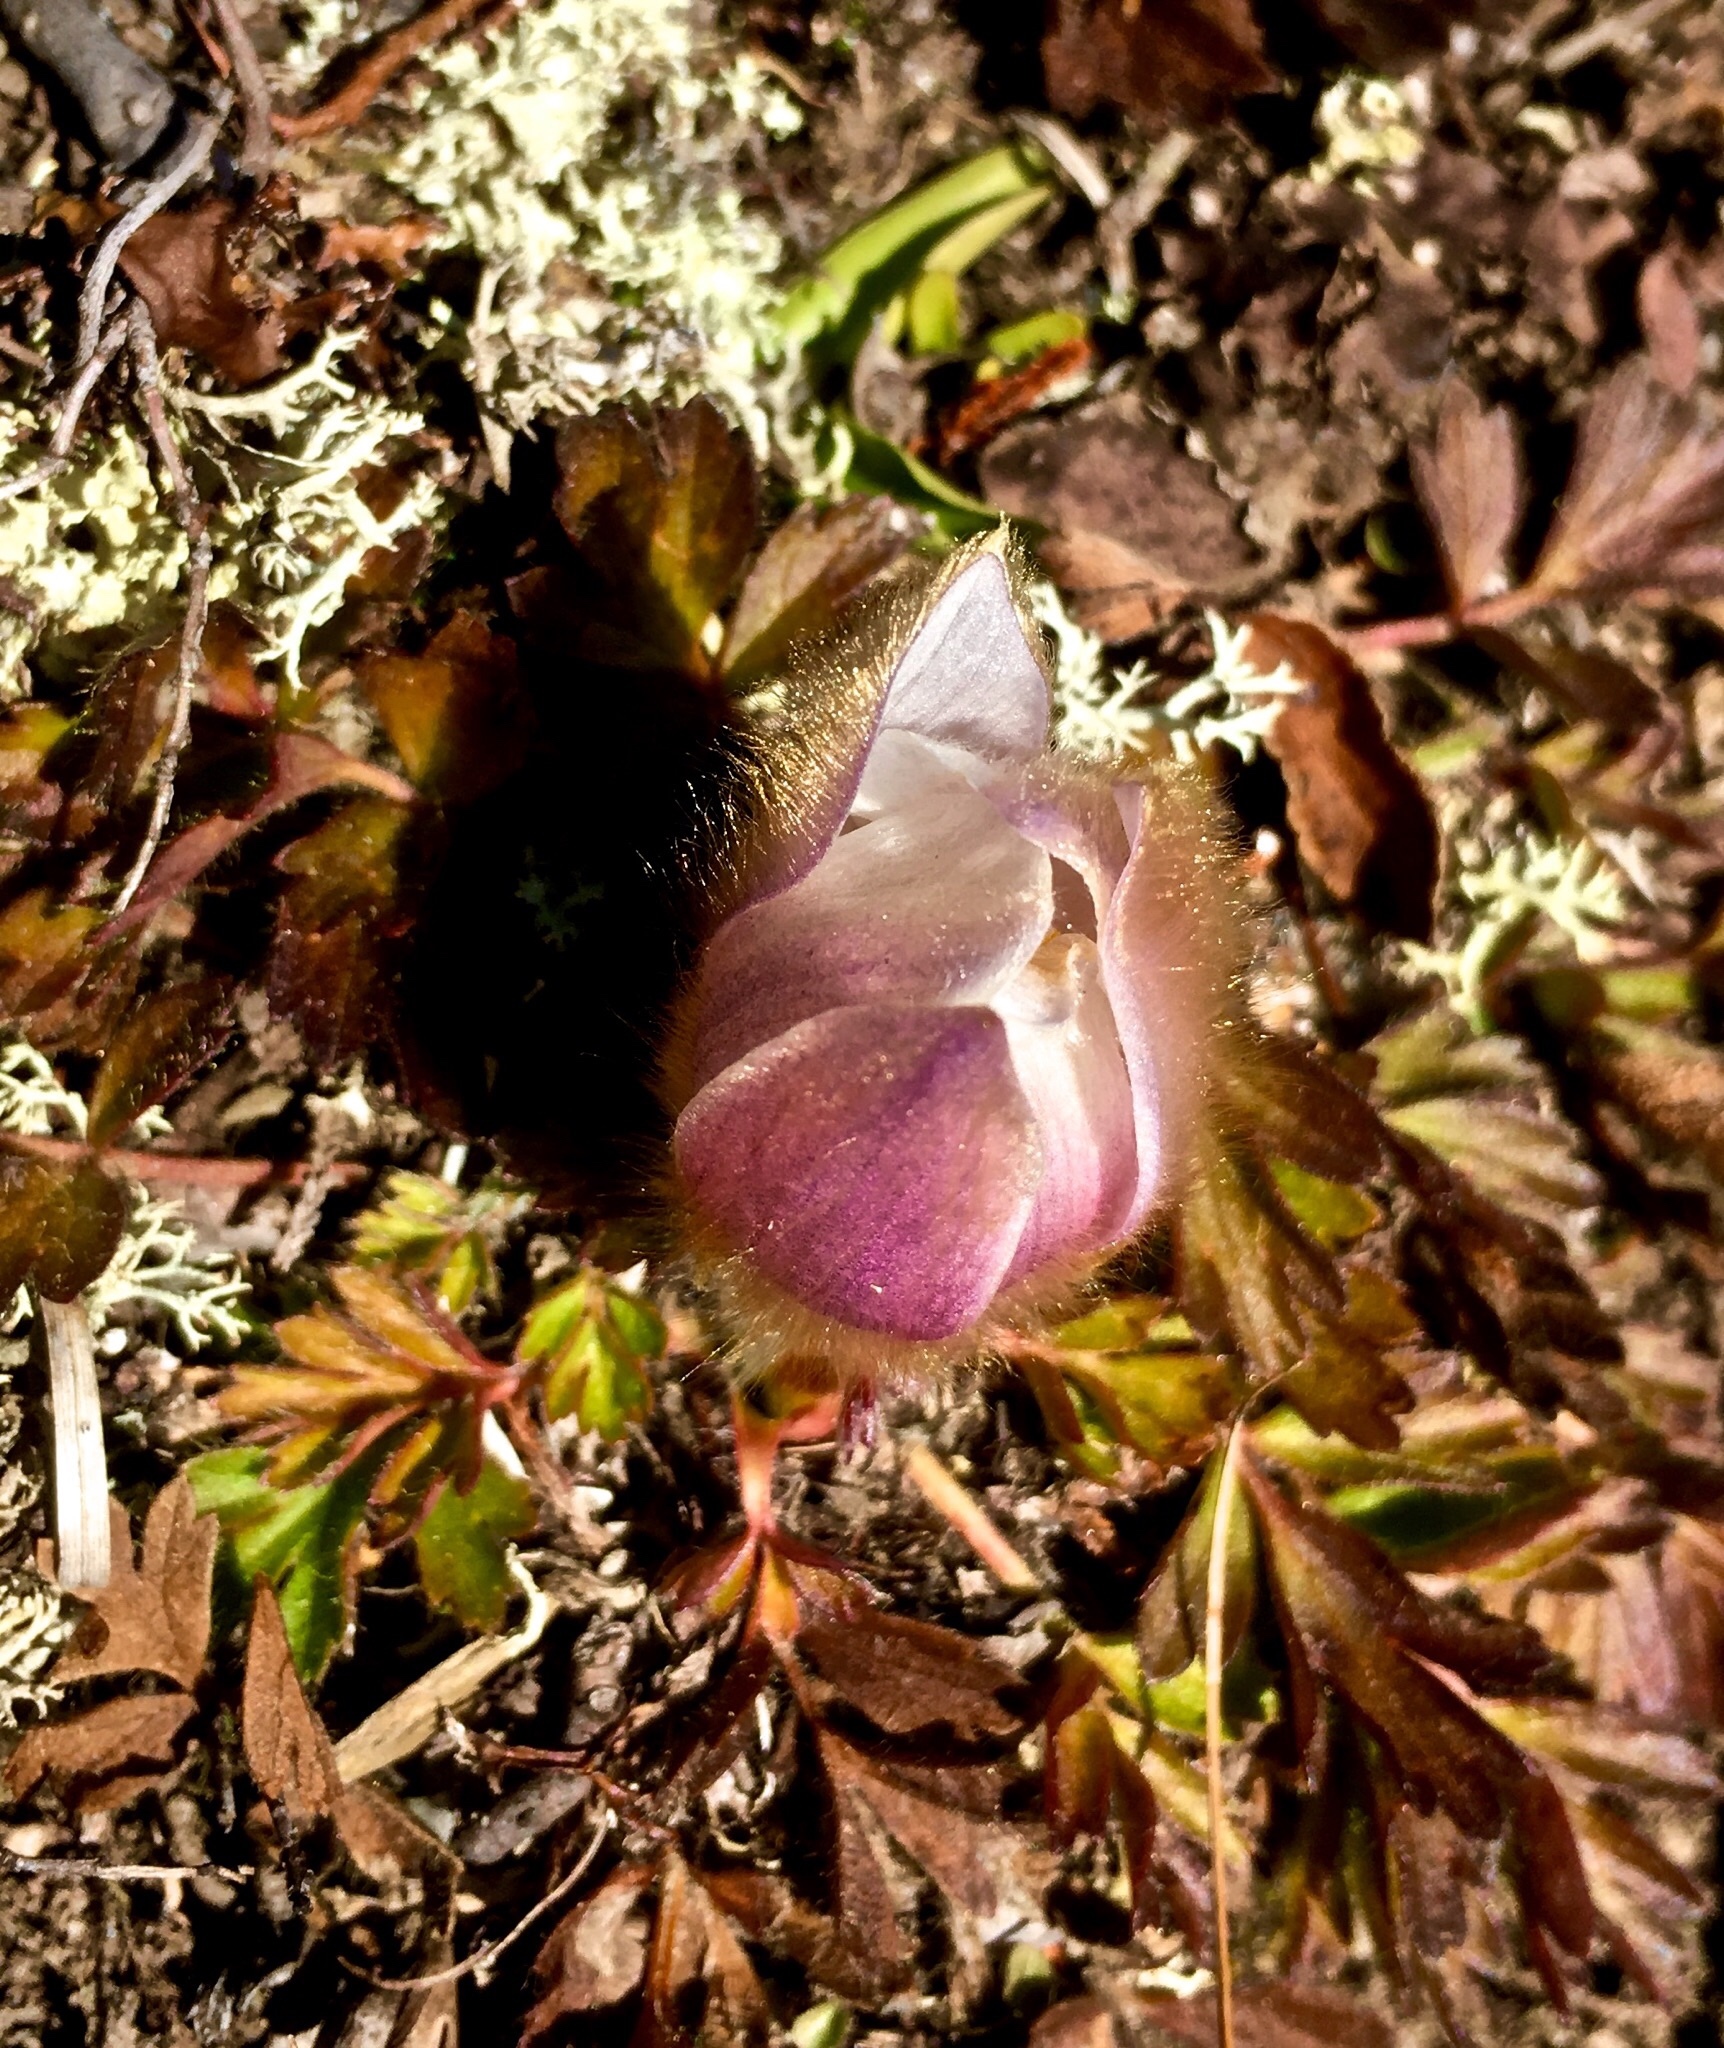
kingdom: Plantae
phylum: Tracheophyta
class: Magnoliopsida
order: Ranunculales
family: Ranunculaceae
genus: Pulsatilla
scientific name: Pulsatilla vernalis
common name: Spring pasque flower
